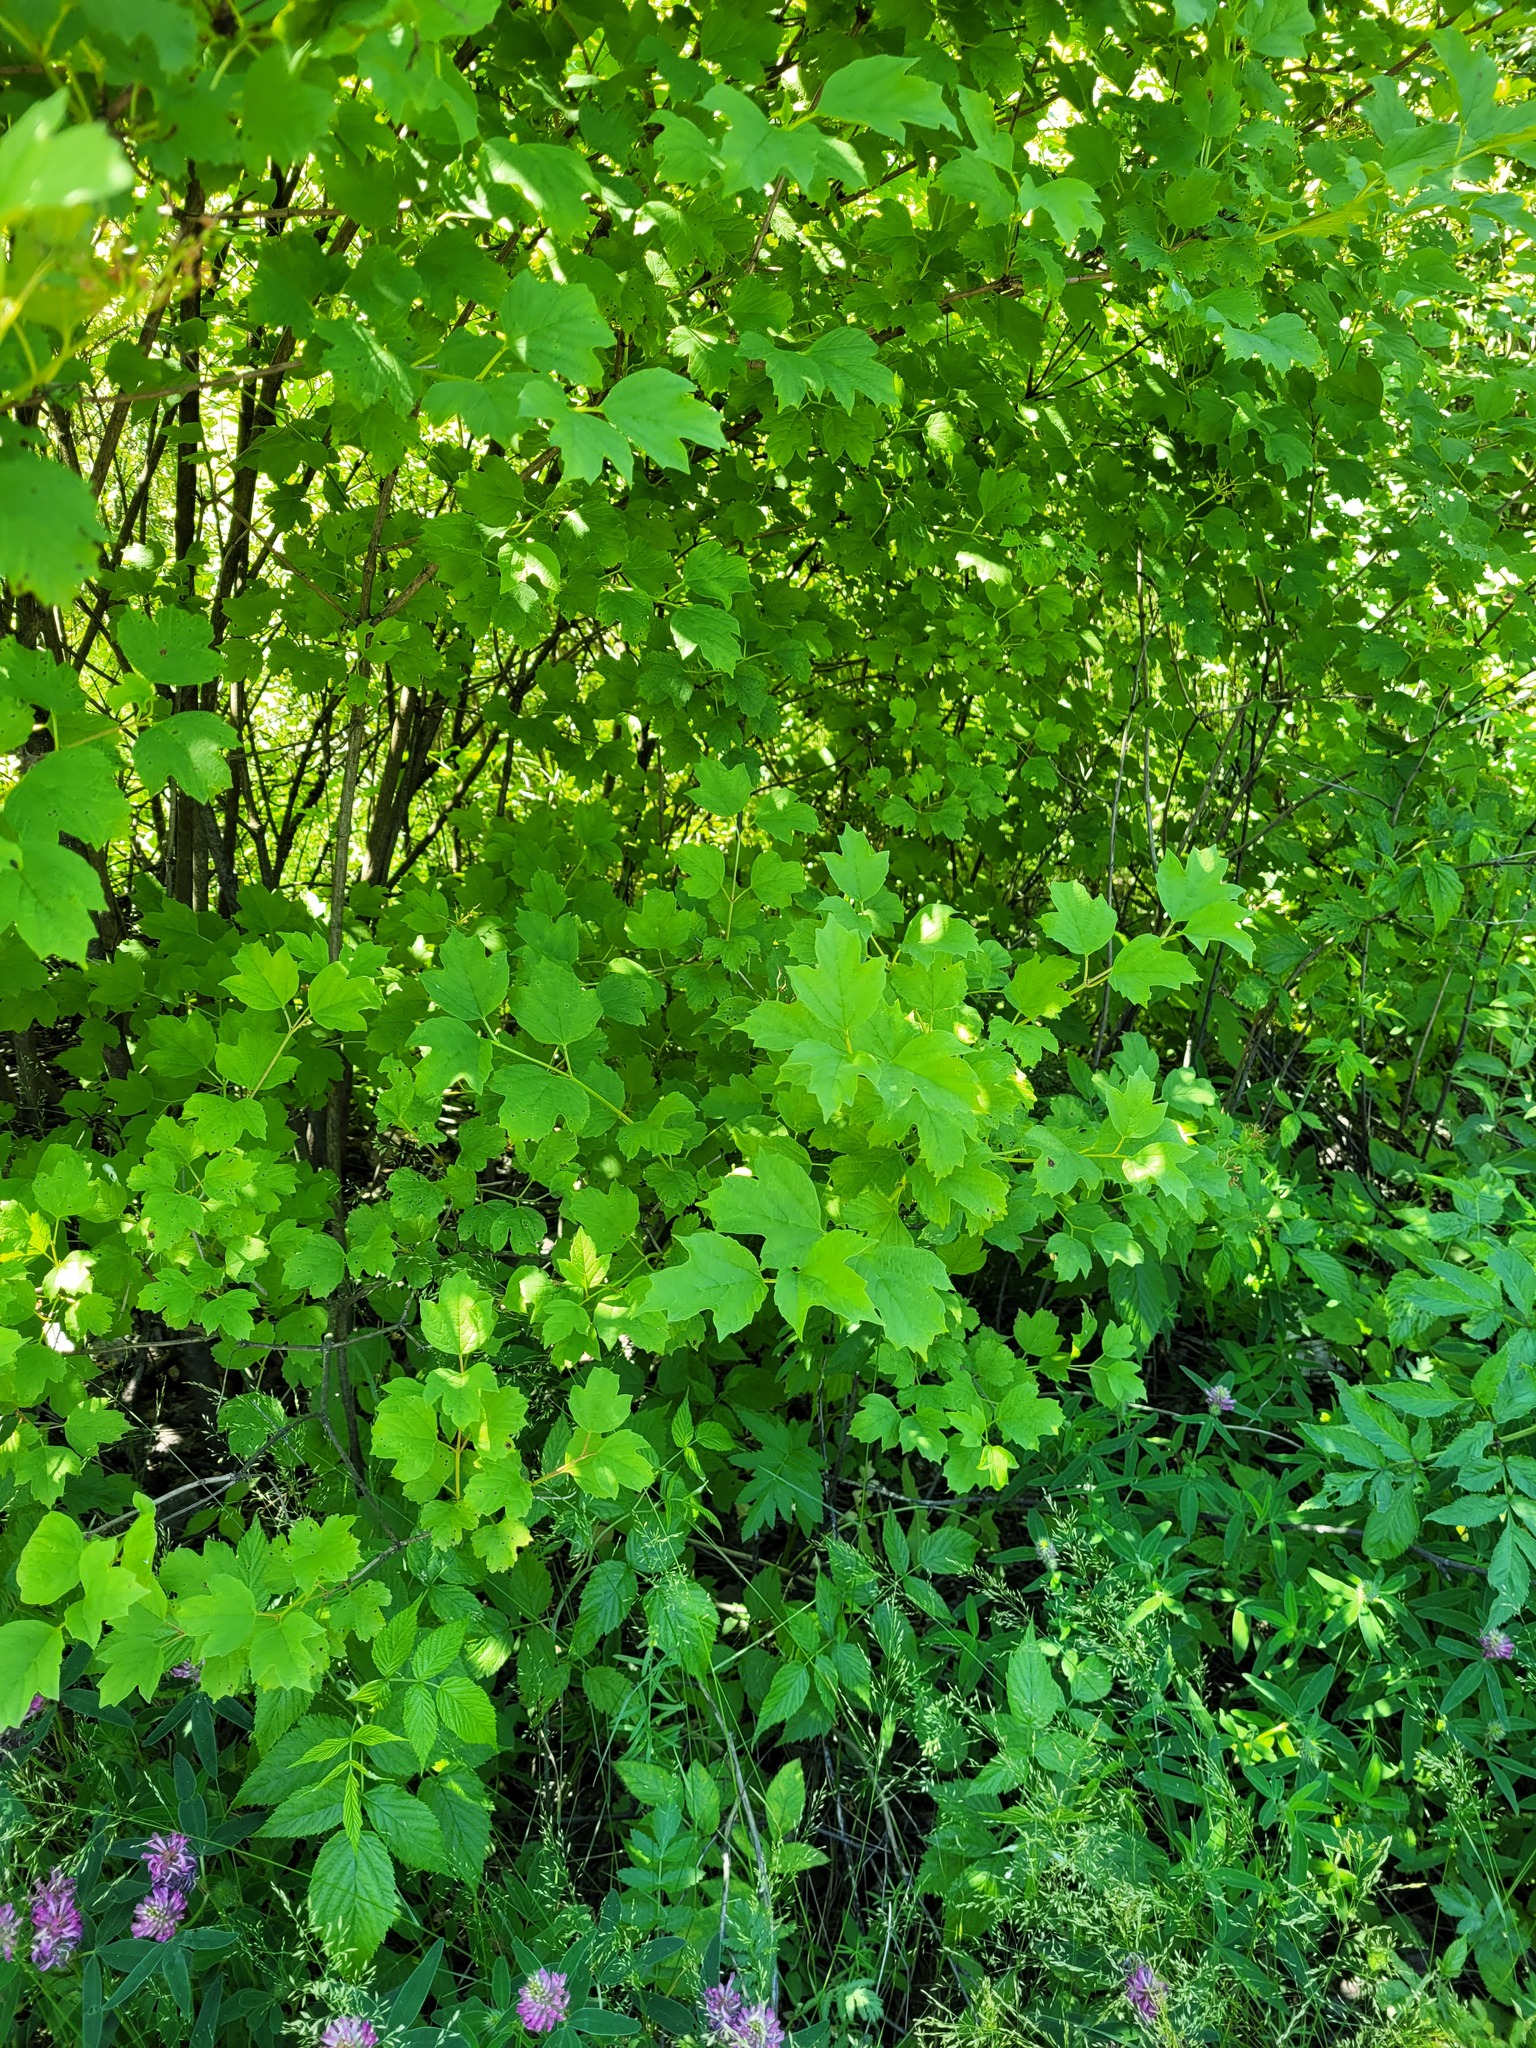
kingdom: Plantae
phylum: Tracheophyta
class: Magnoliopsida
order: Dipsacales
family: Viburnaceae
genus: Viburnum
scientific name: Viburnum opulus
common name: Guelder-rose
